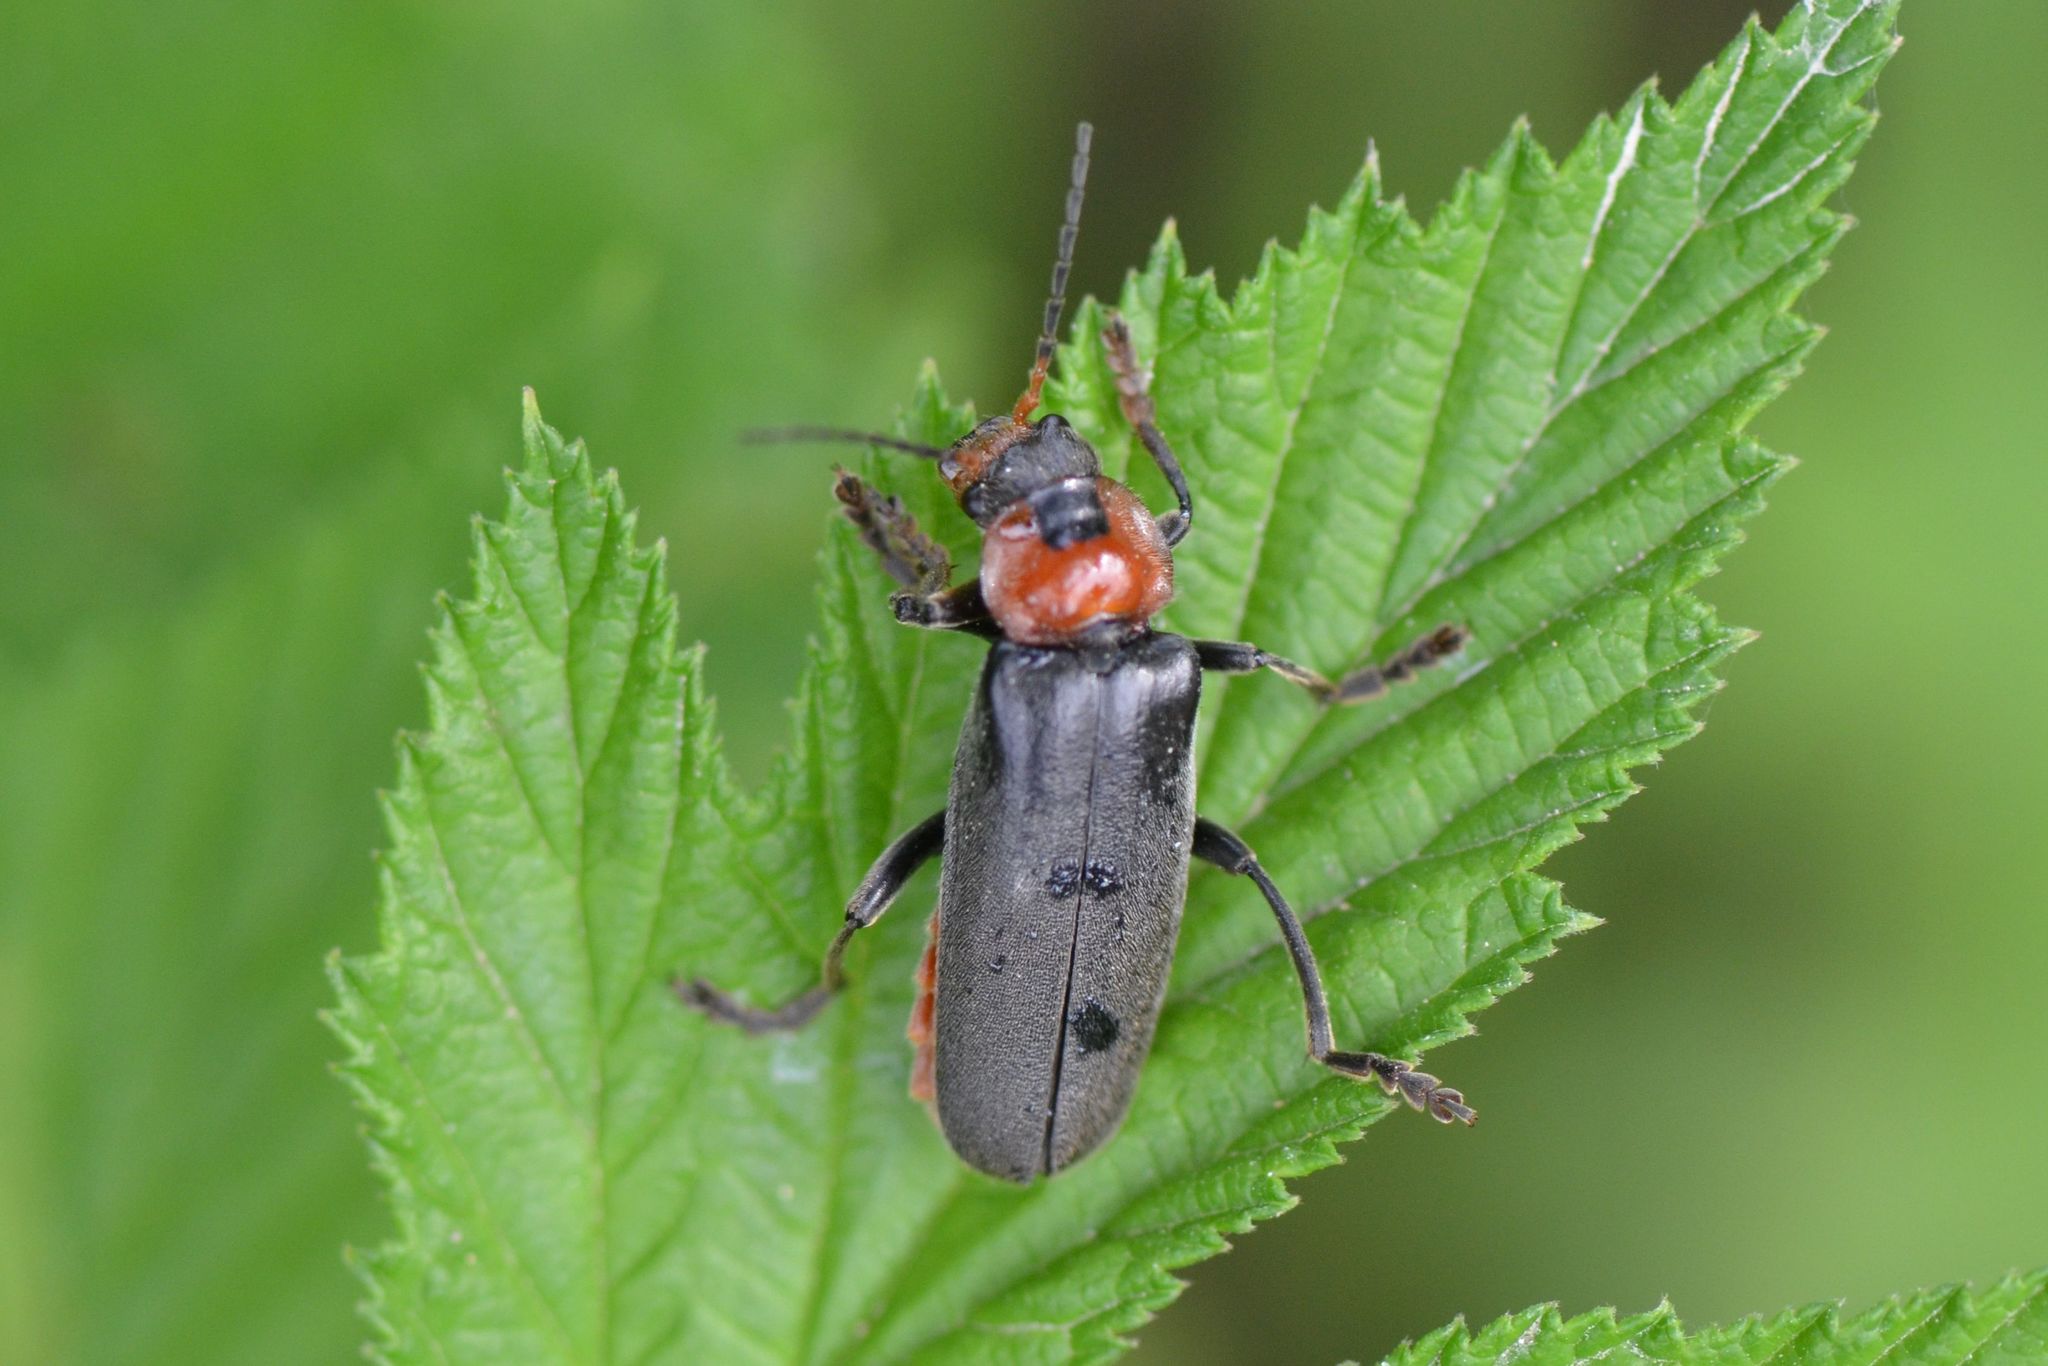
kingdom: Animalia
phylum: Arthropoda
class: Insecta
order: Coleoptera
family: Cantharidae
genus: Cantharis
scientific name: Cantharis fusca
